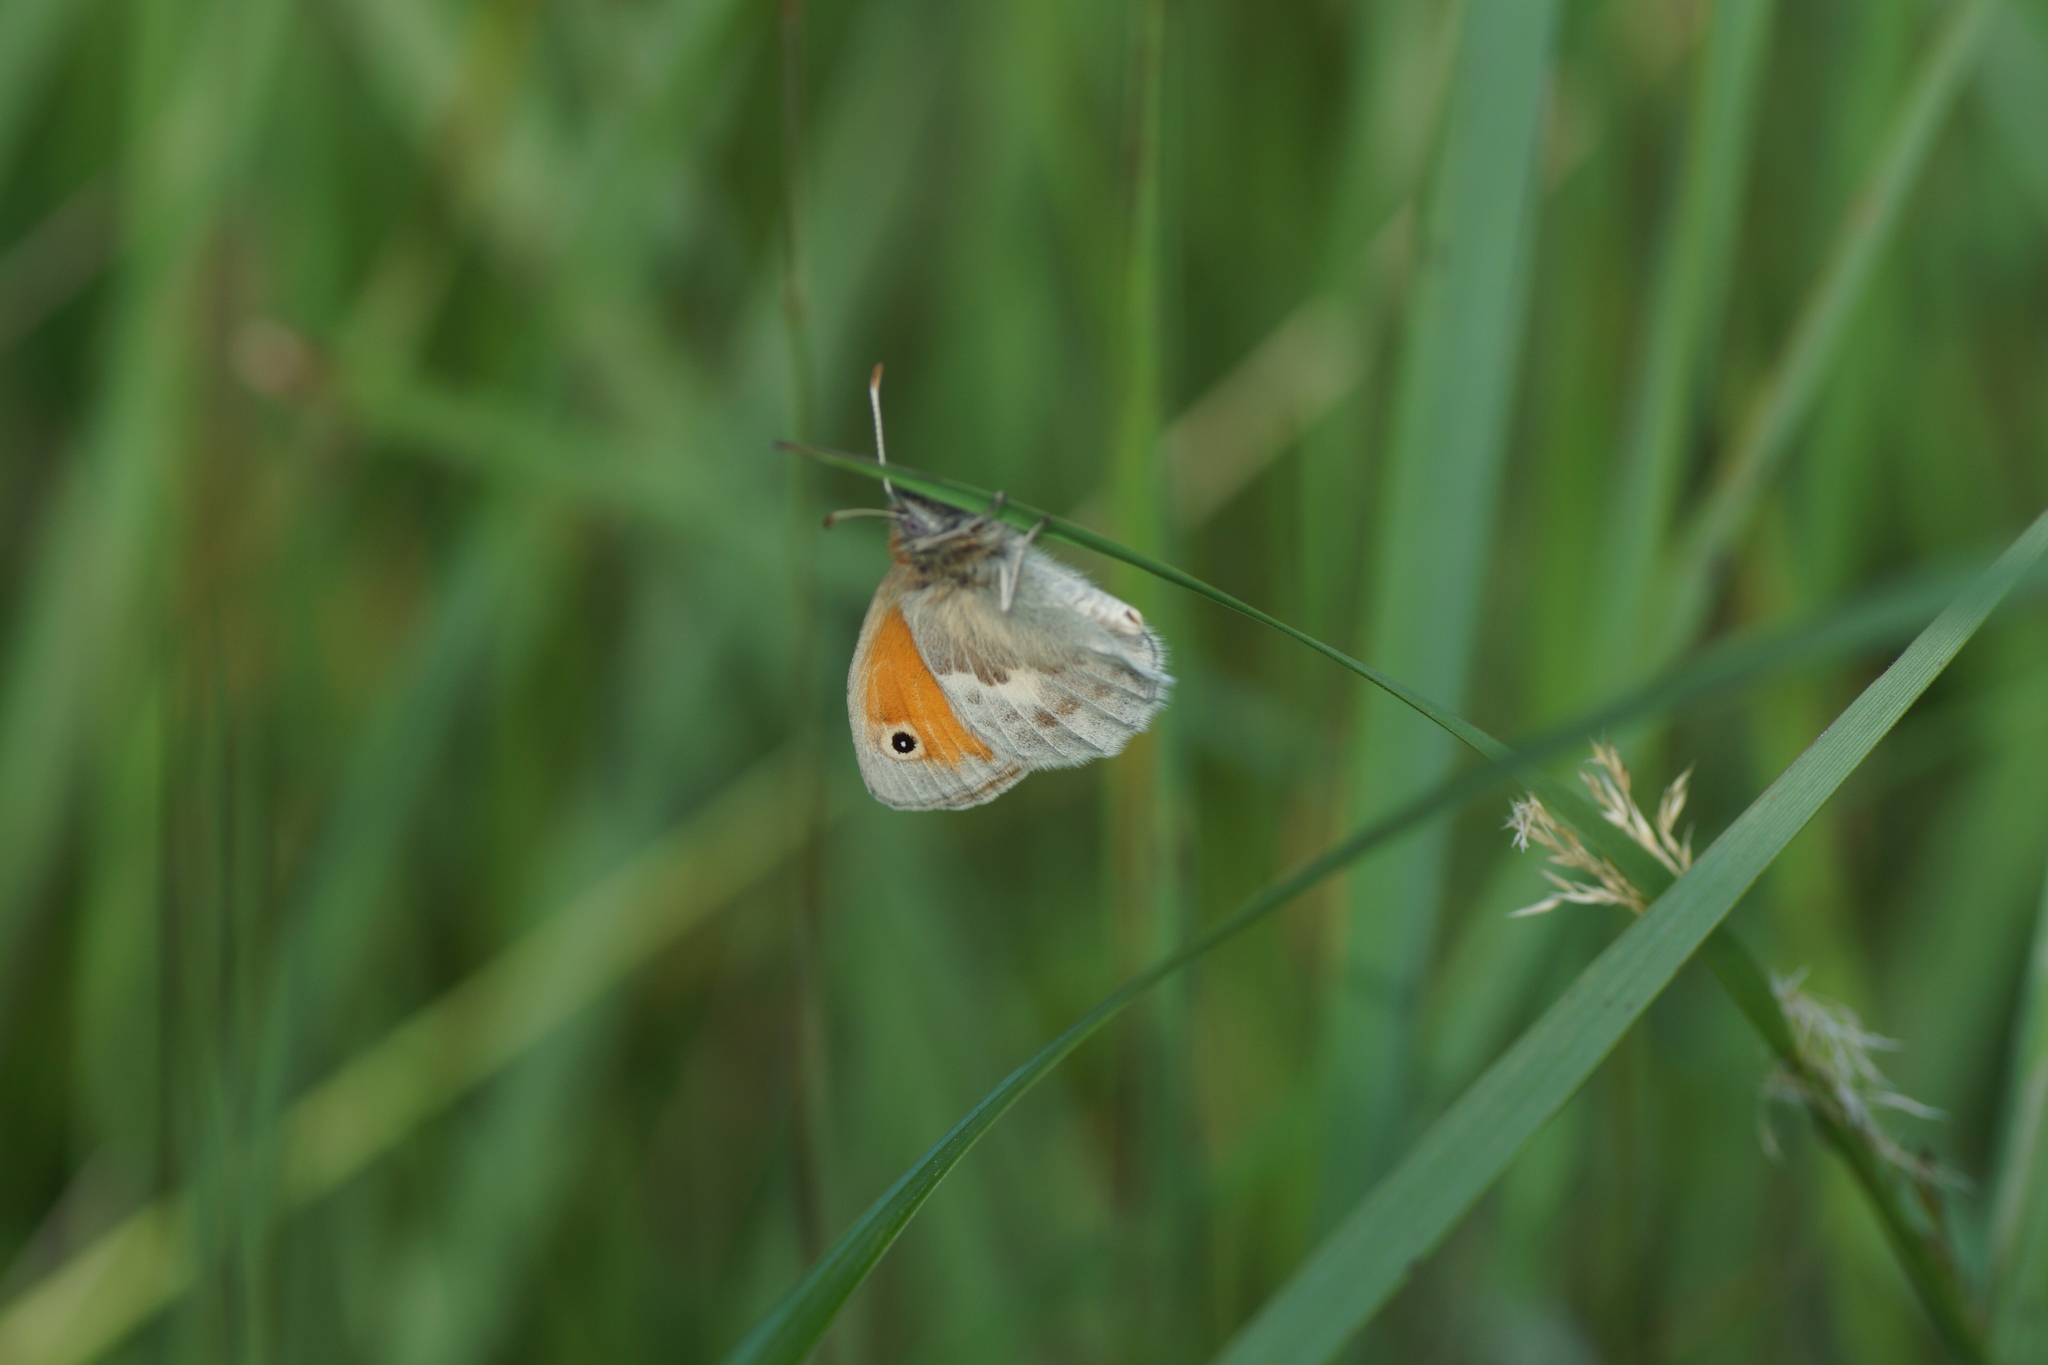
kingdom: Animalia
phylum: Arthropoda
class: Insecta
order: Lepidoptera
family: Nymphalidae
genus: Coenonympha
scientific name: Coenonympha pamphilus
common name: Small heath
